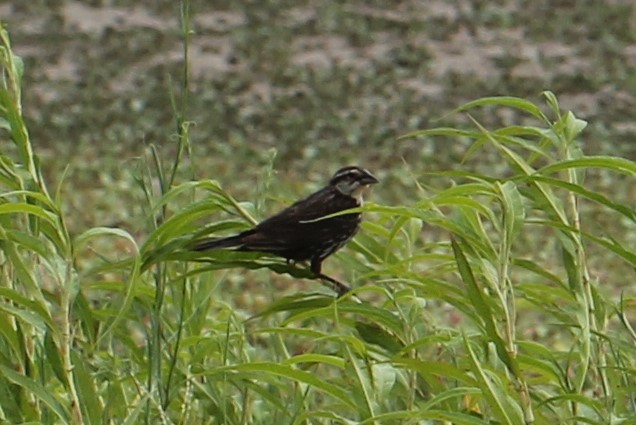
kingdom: Animalia
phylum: Chordata
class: Aves
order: Passeriformes
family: Icteridae
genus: Agelaius
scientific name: Agelaius phoeniceus
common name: Red-winged blackbird
